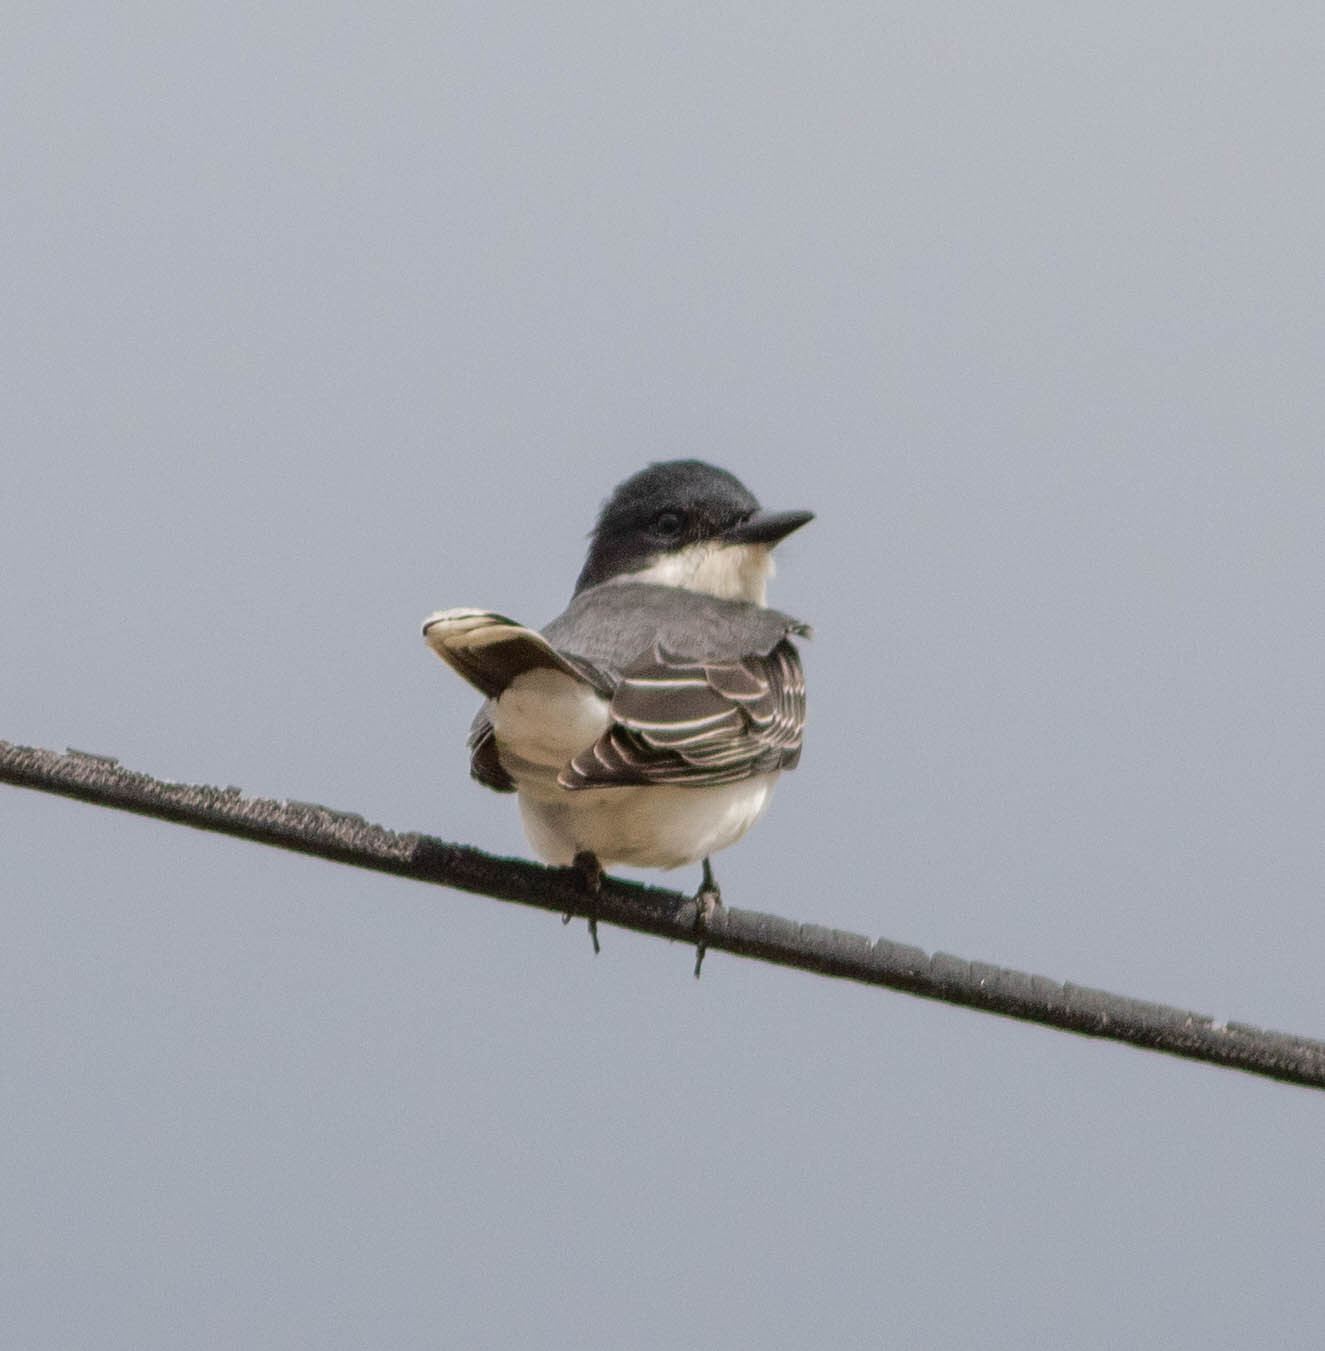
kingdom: Animalia
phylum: Chordata
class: Aves
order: Passeriformes
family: Tyrannidae
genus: Tyrannus
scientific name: Tyrannus tyrannus
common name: Eastern kingbird
